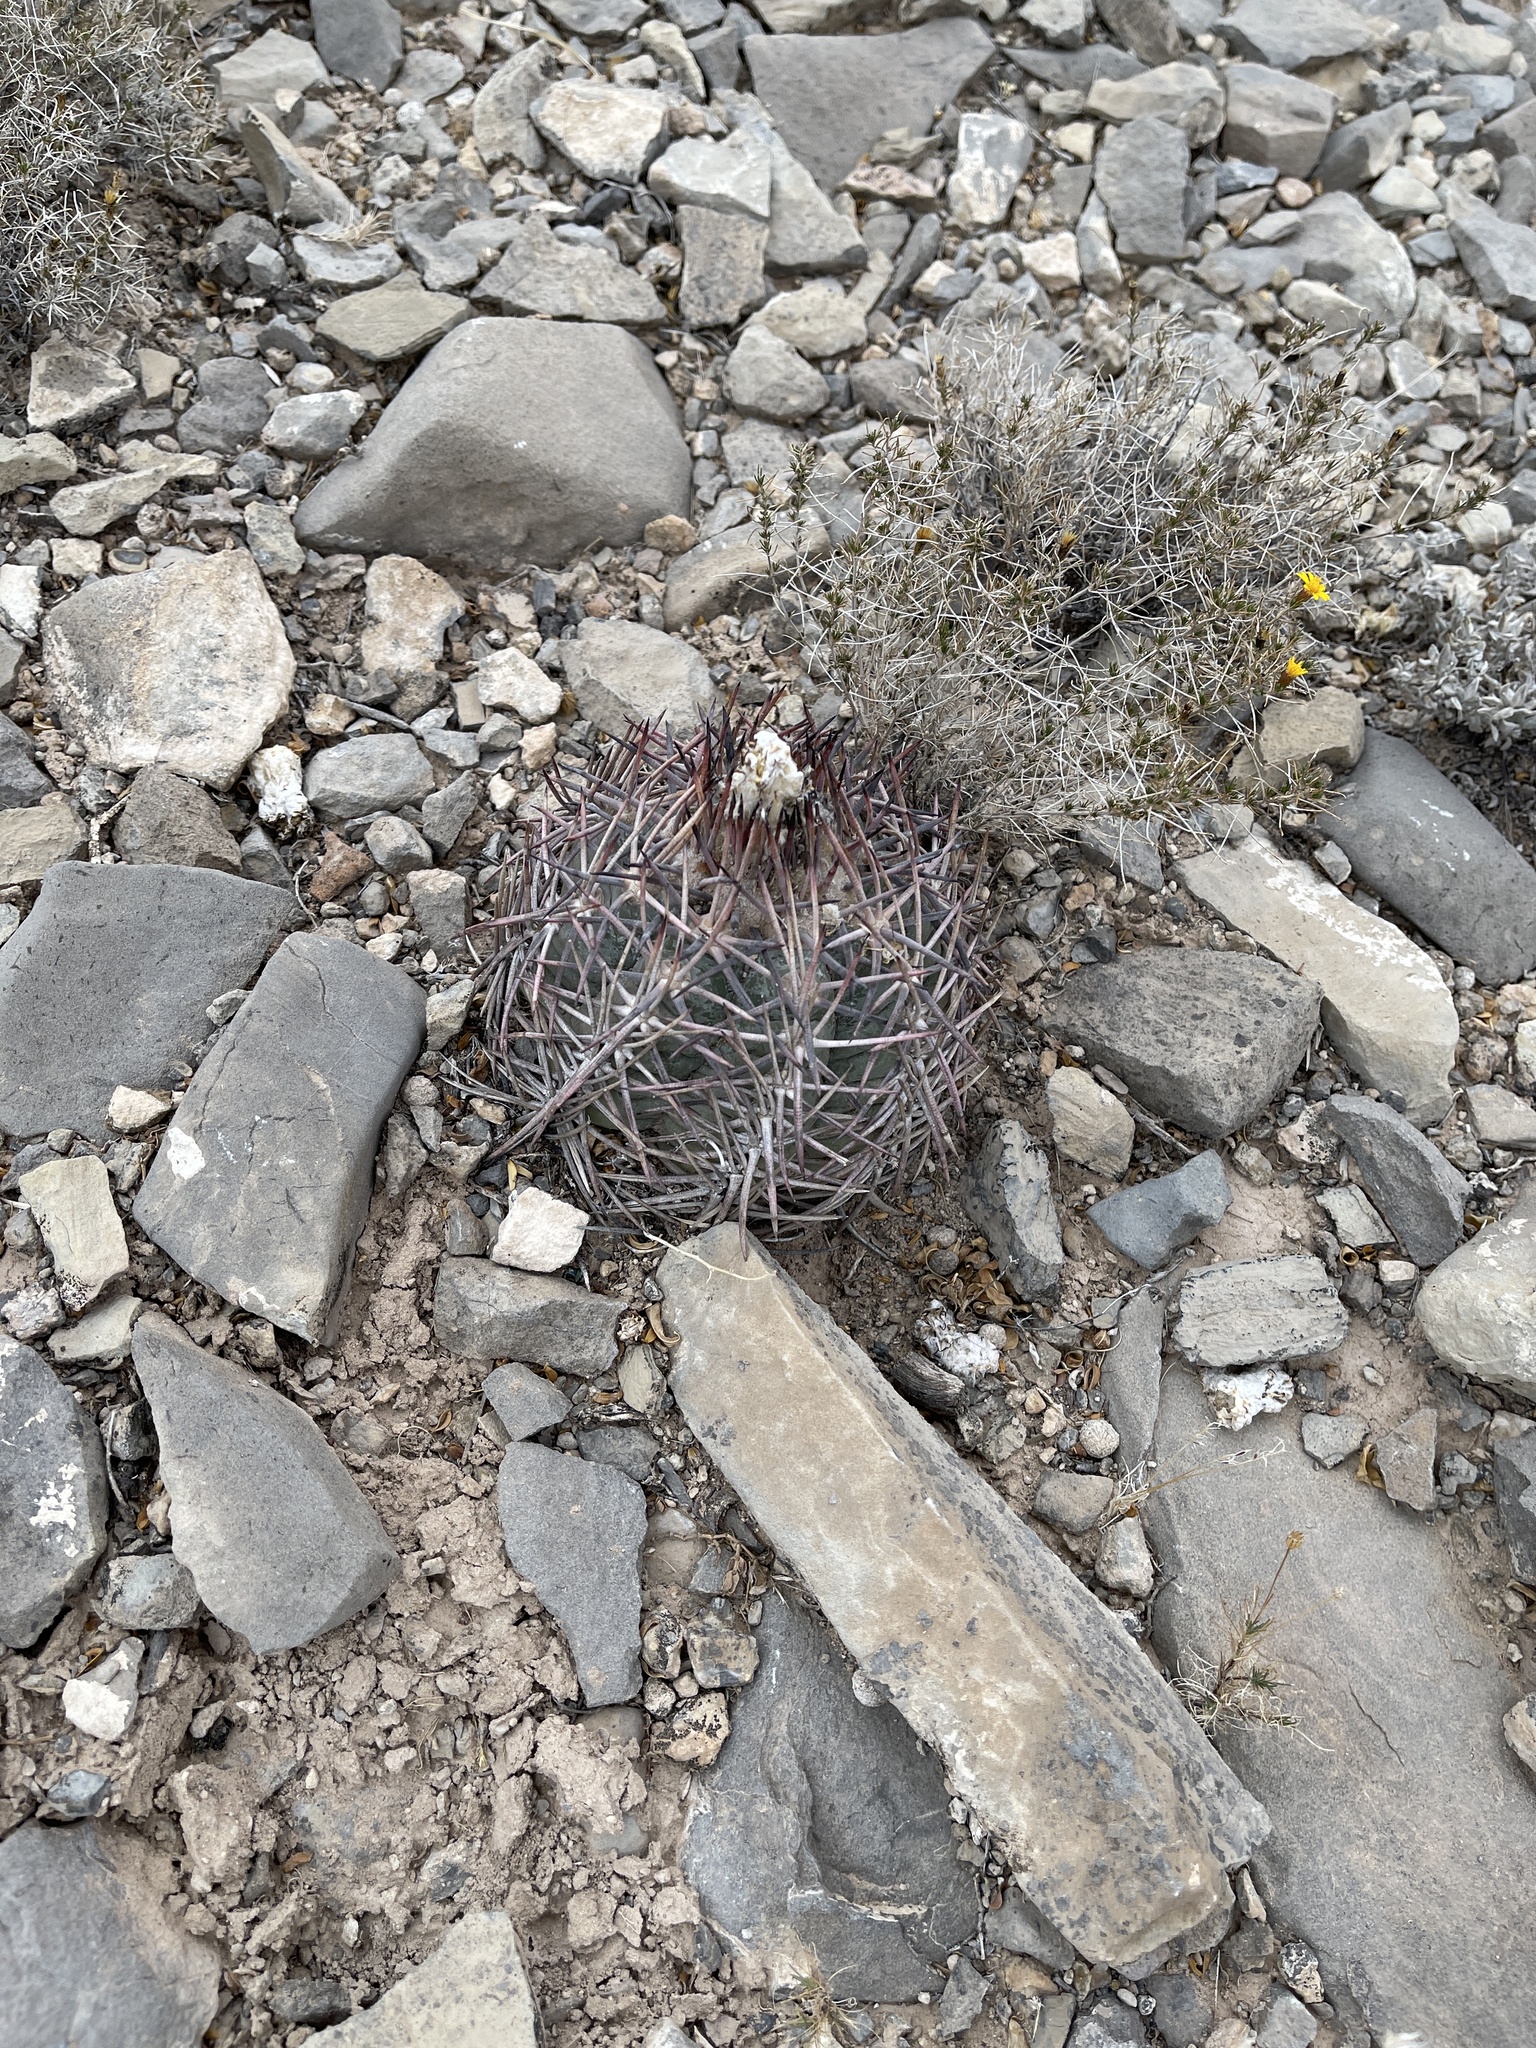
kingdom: Plantae
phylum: Tracheophyta
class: Magnoliopsida
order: Caryophyllales
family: Cactaceae
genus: Echinocactus
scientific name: Echinocactus horizonthalonius
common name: Devilshead
